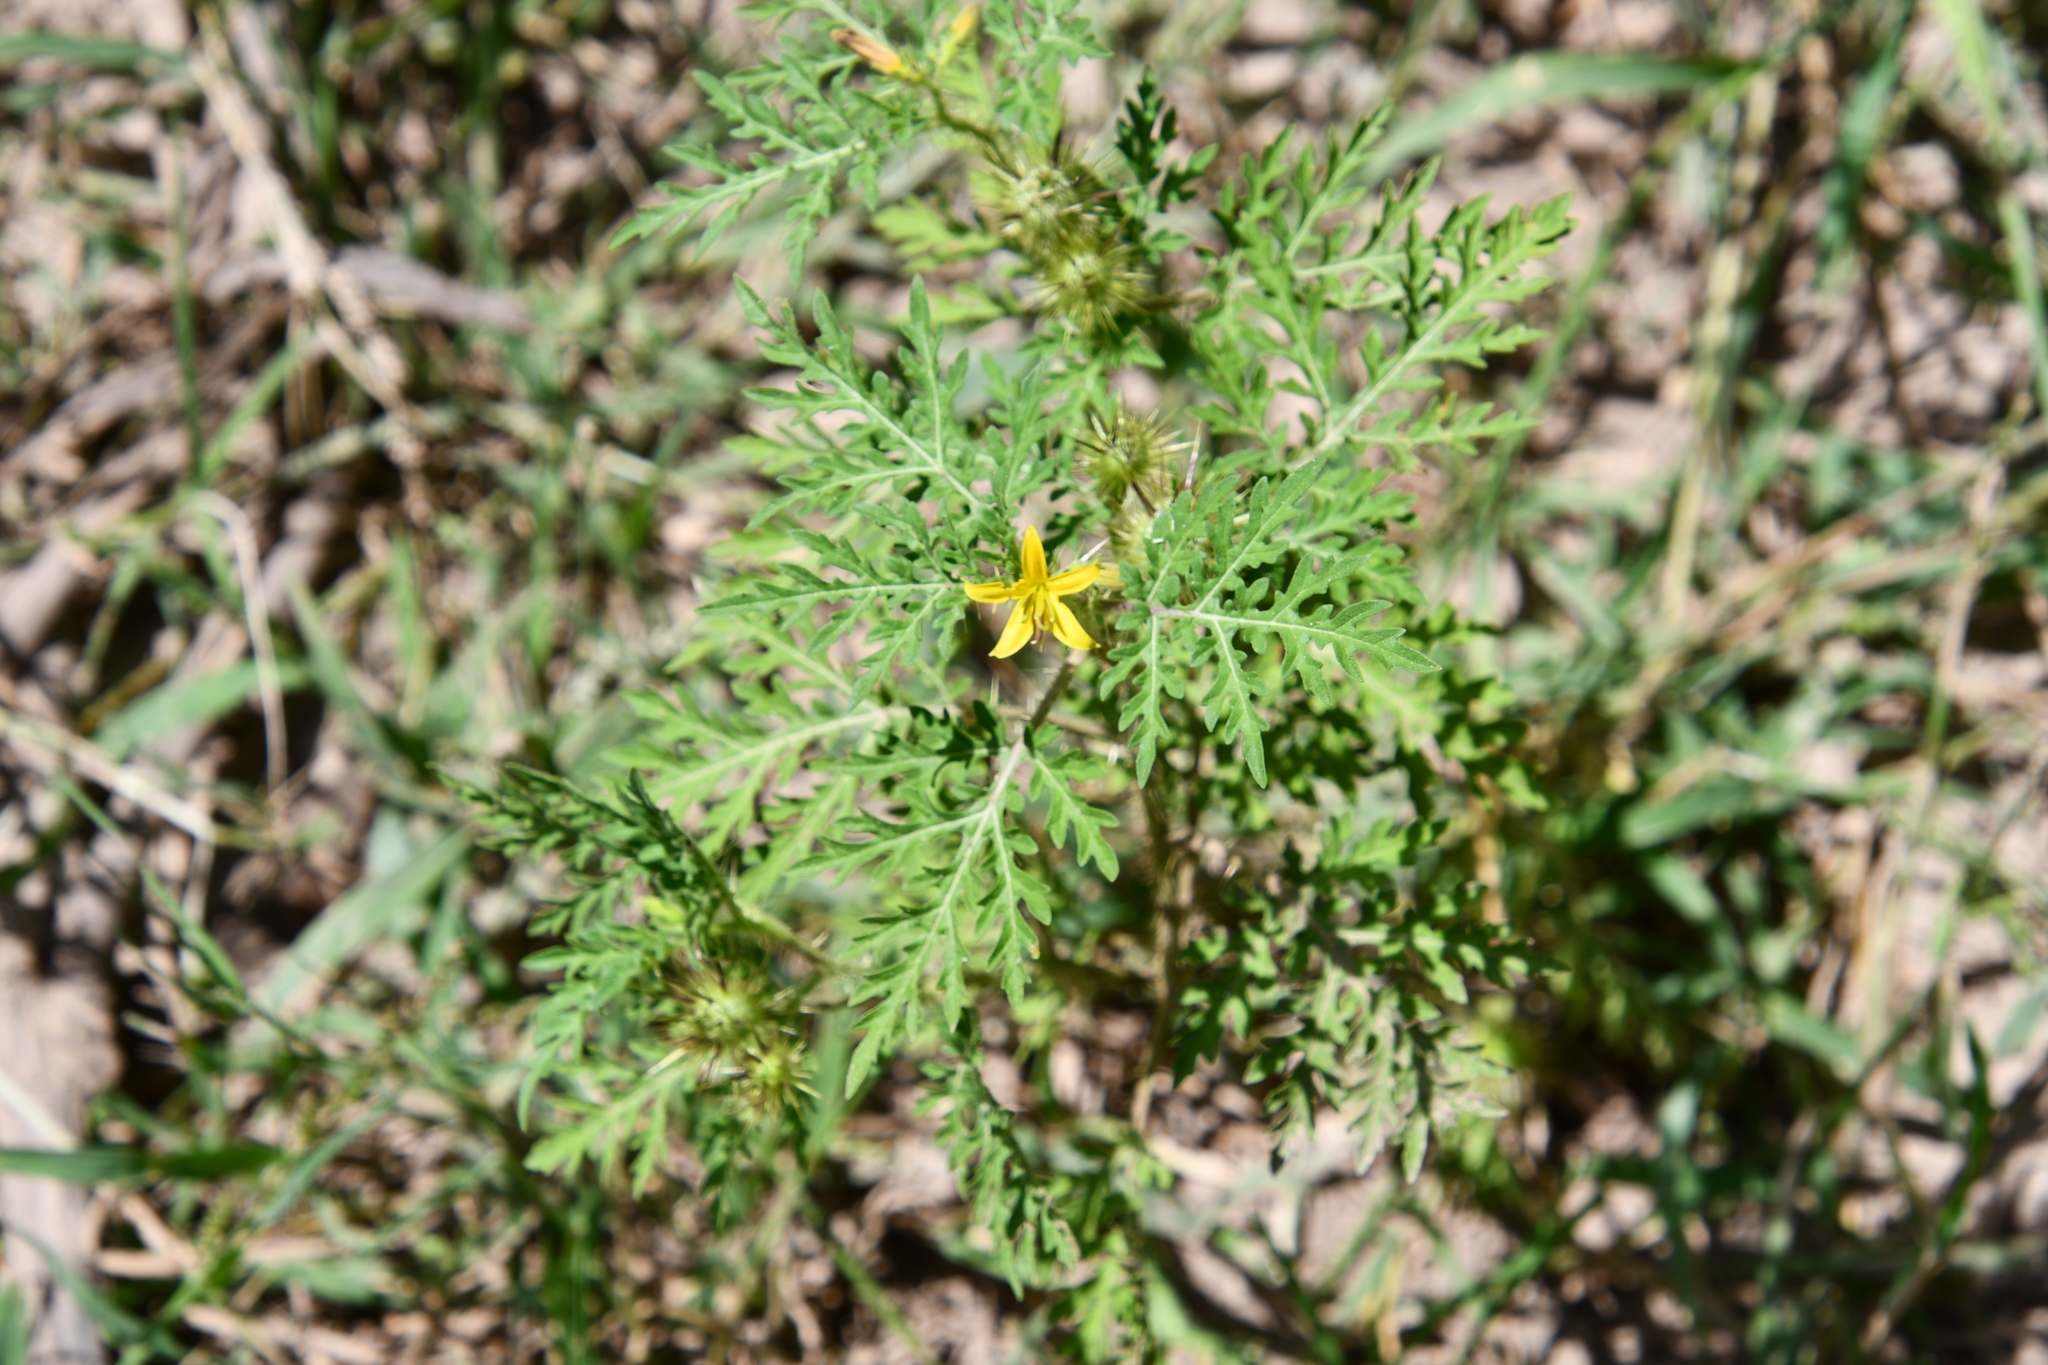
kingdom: Plantae
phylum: Tracheophyta
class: Magnoliopsida
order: Solanales
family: Solanaceae
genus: Solanum
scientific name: Solanum lumholtzianum
